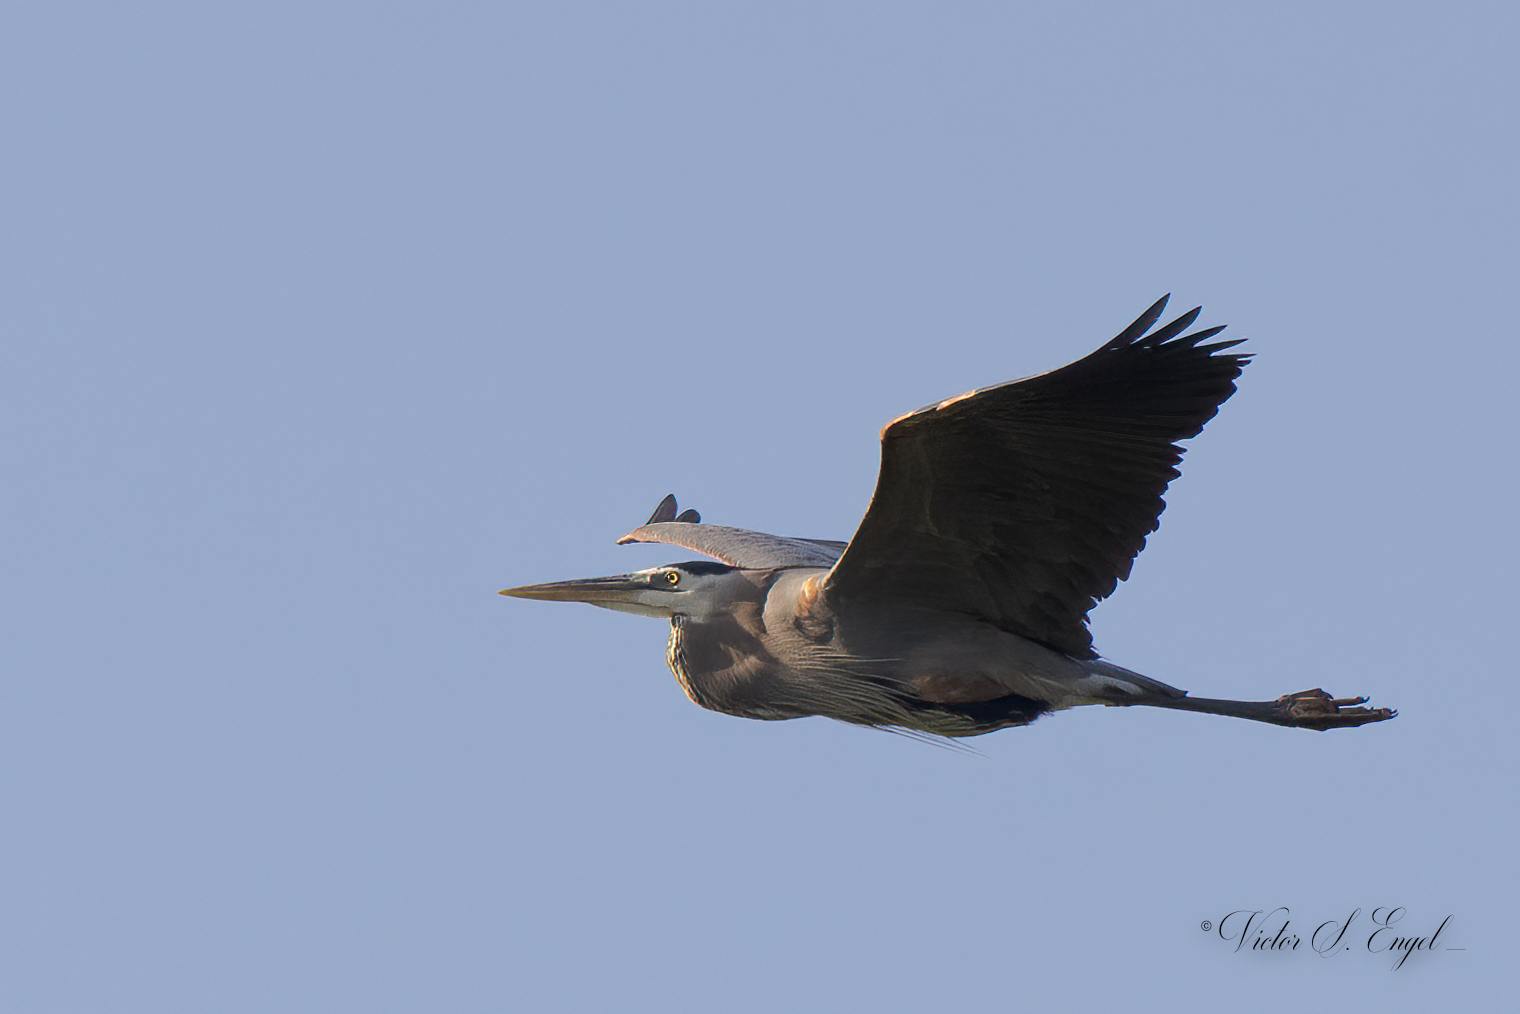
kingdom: Animalia
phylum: Chordata
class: Aves
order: Pelecaniformes
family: Ardeidae
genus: Ardea
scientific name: Ardea herodias
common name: Great blue heron
